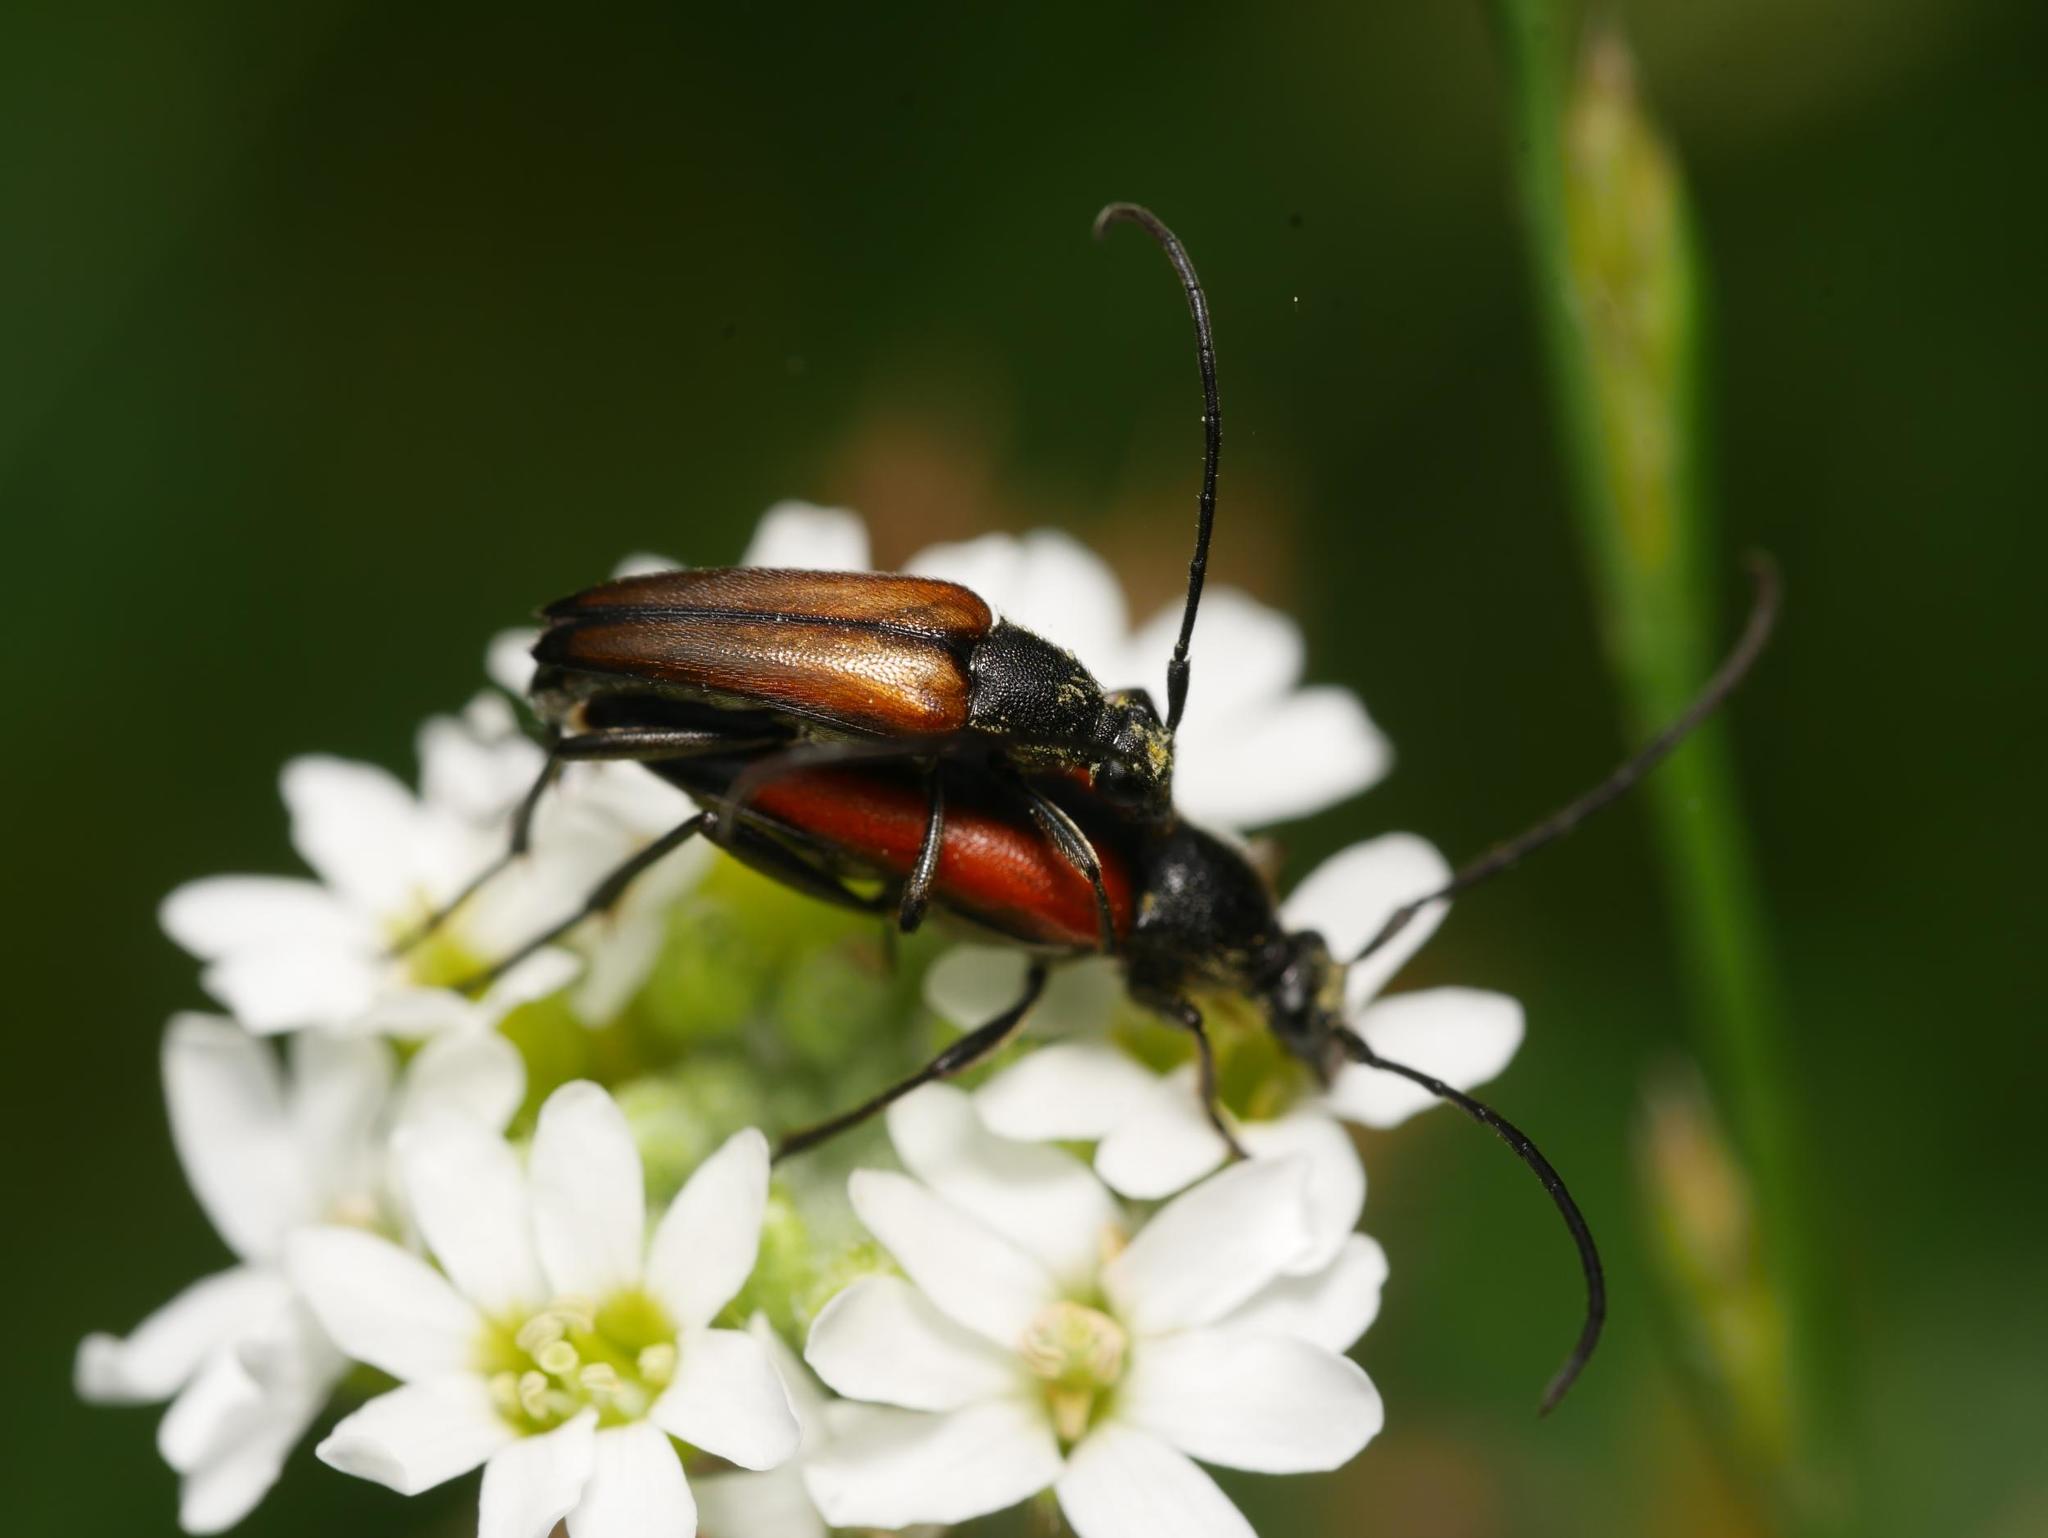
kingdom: Animalia
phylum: Arthropoda
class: Insecta
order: Coleoptera
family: Cerambycidae
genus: Stenurella
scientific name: Stenurella melanura
